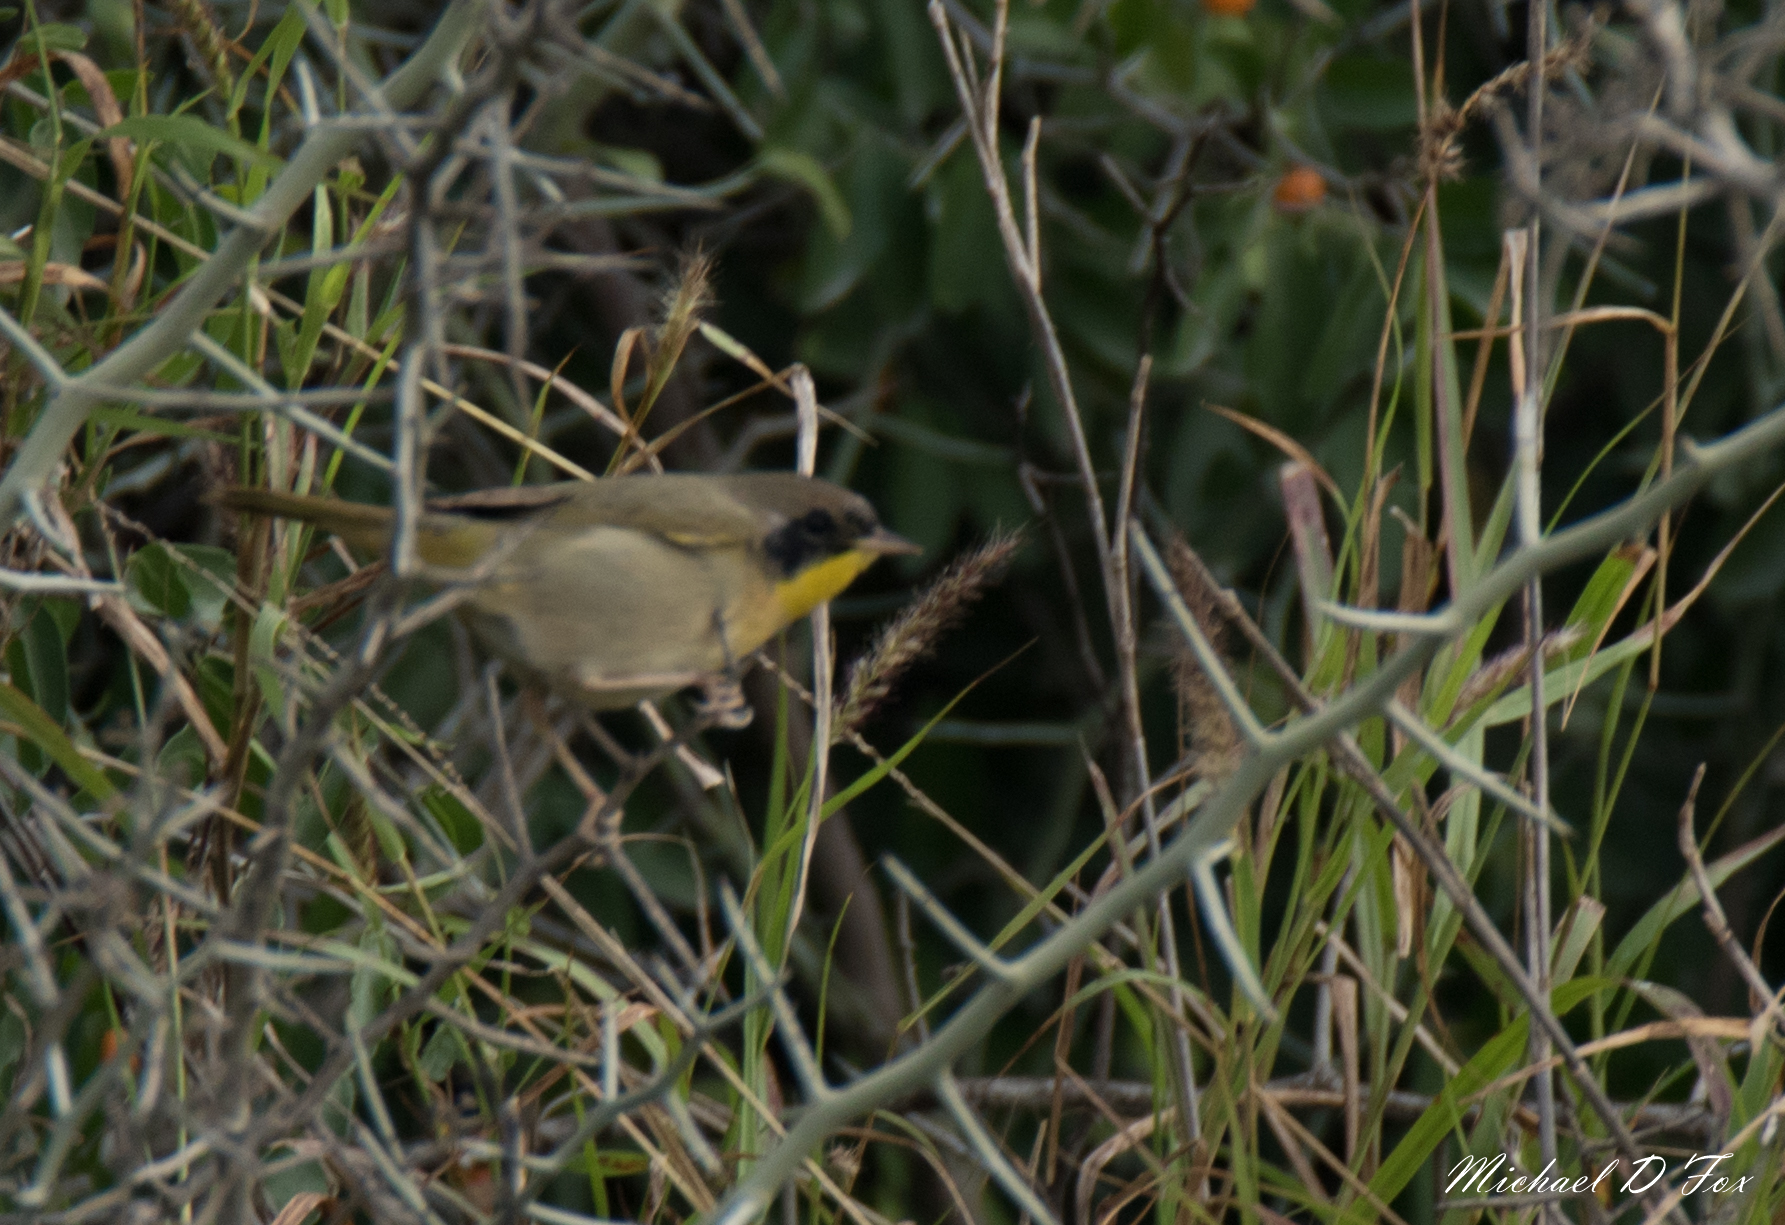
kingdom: Animalia
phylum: Chordata
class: Aves
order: Passeriformes
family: Parulidae
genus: Geothlypis
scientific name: Geothlypis trichas
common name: Common yellowthroat
